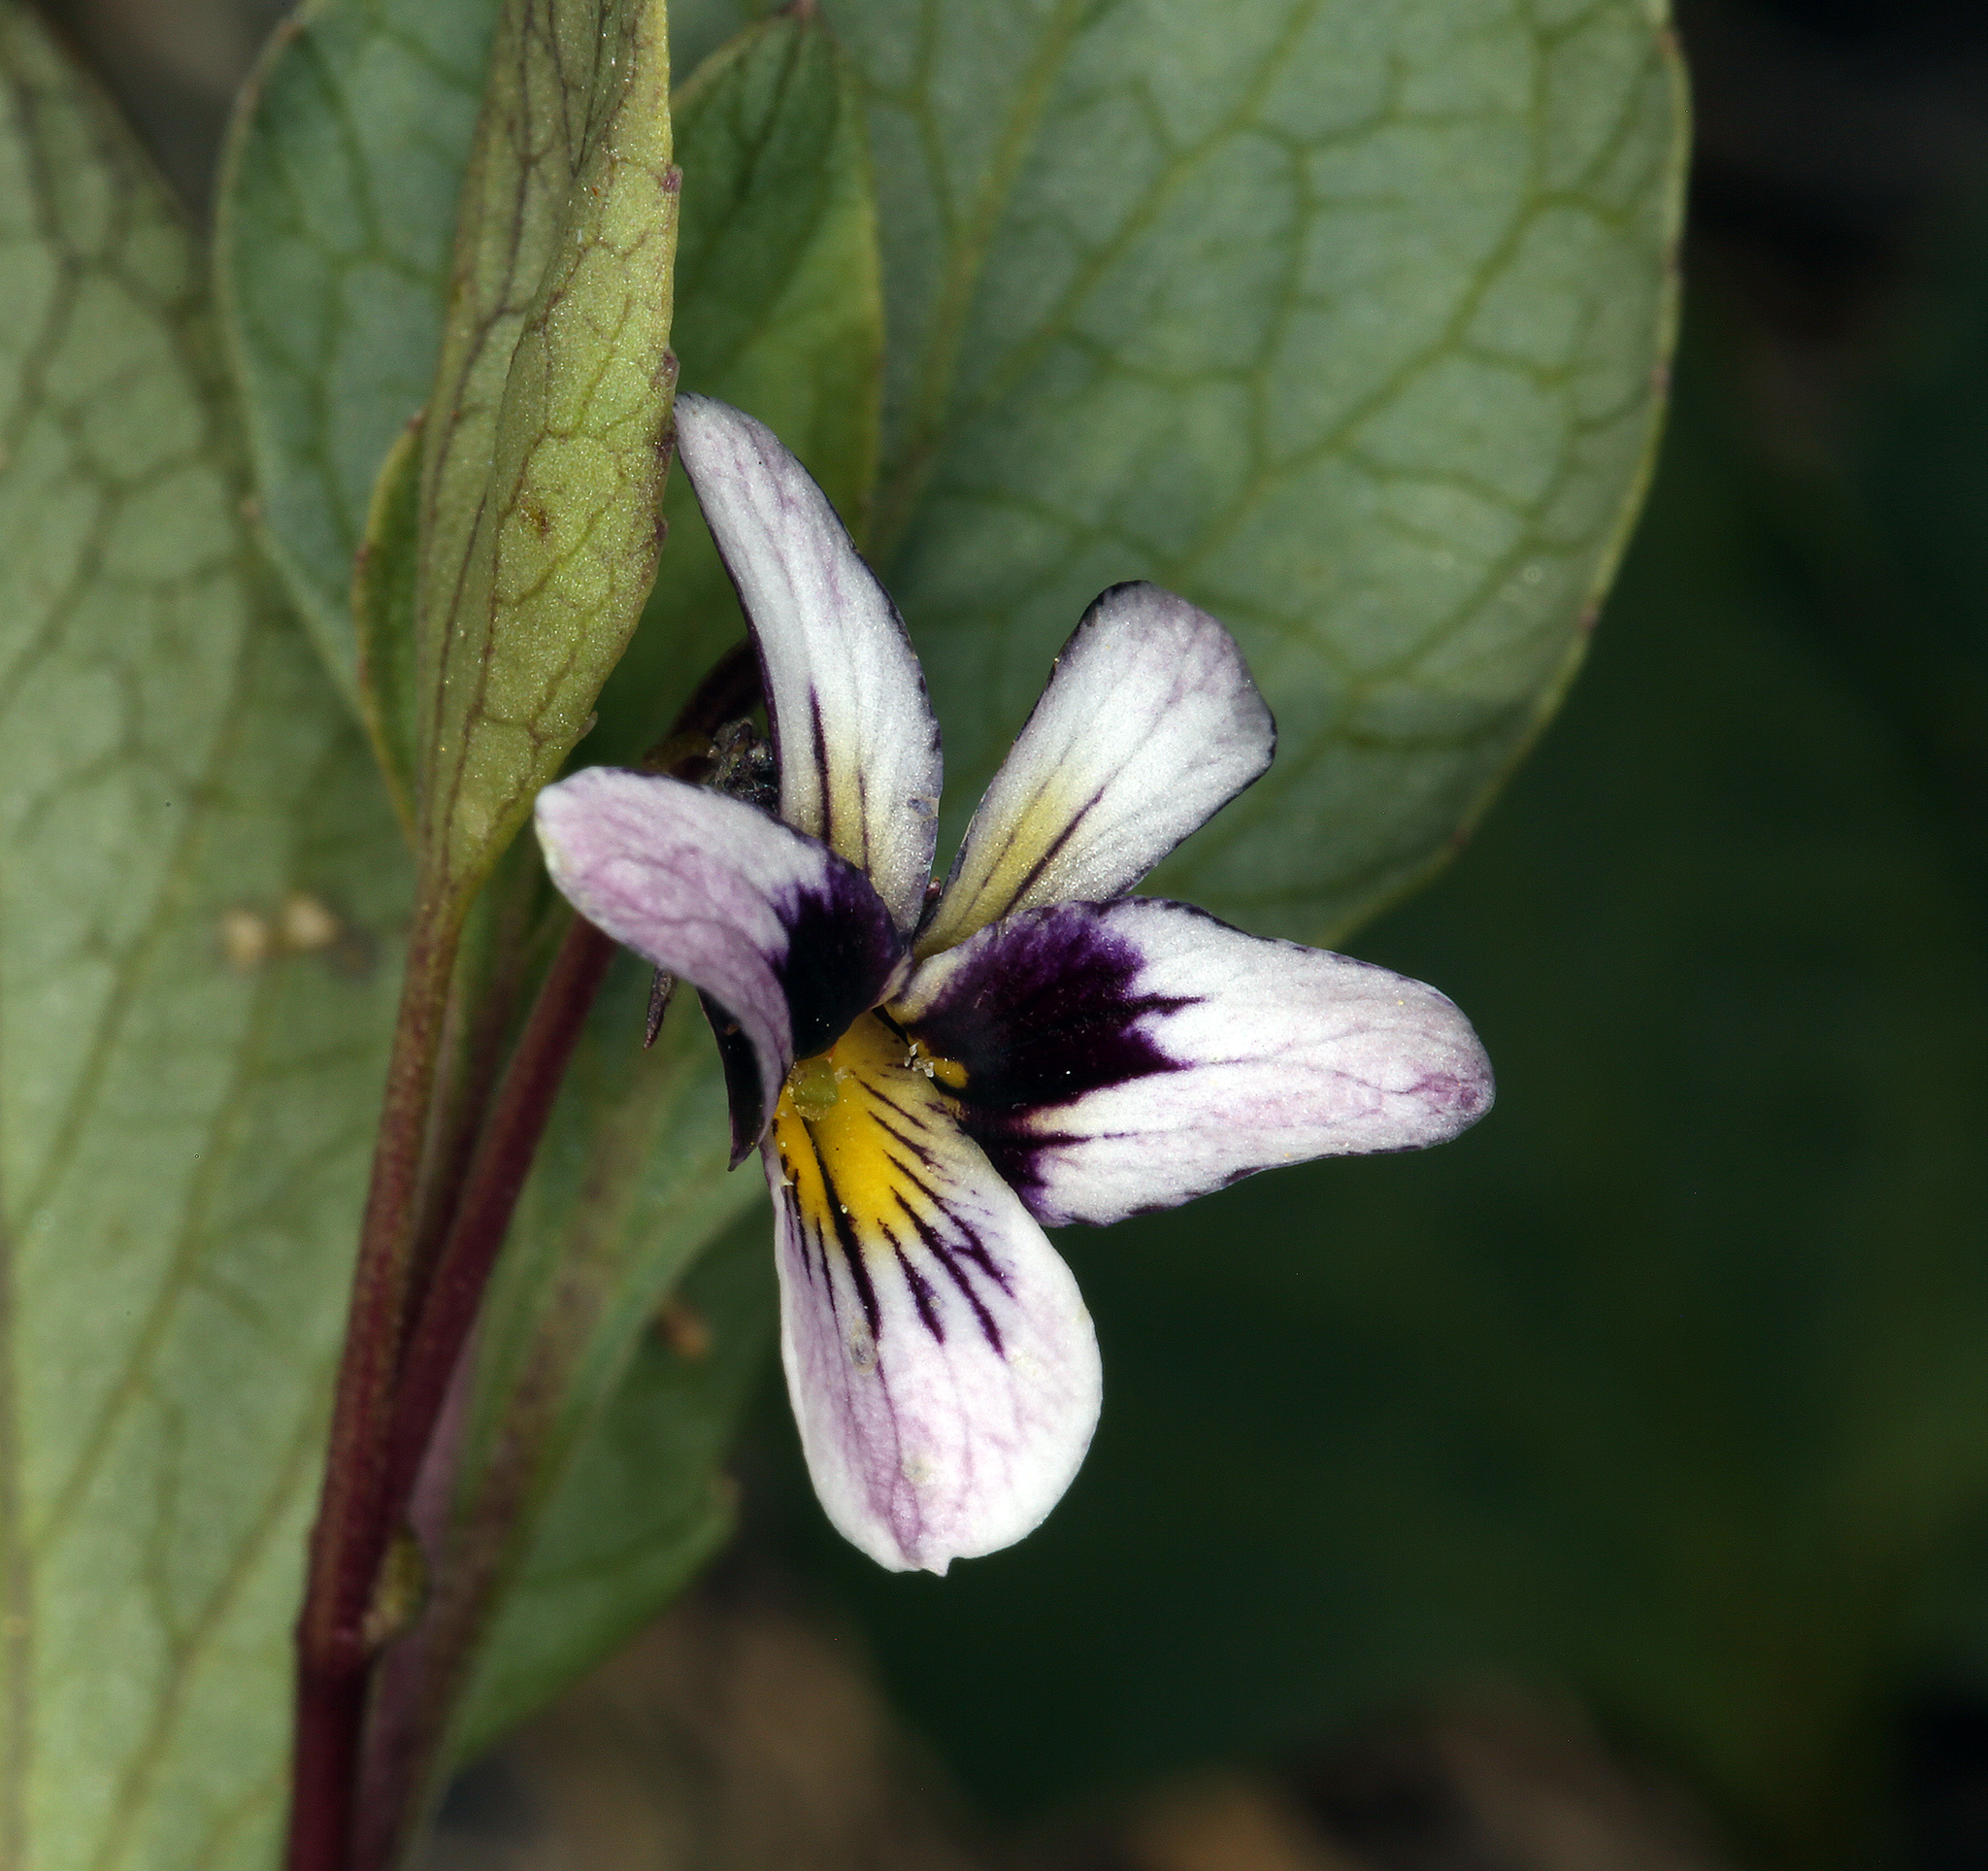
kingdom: Plantae
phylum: Tracheophyta
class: Magnoliopsida
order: Malpighiales
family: Violaceae
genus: Viola
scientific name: Viola cuneata
